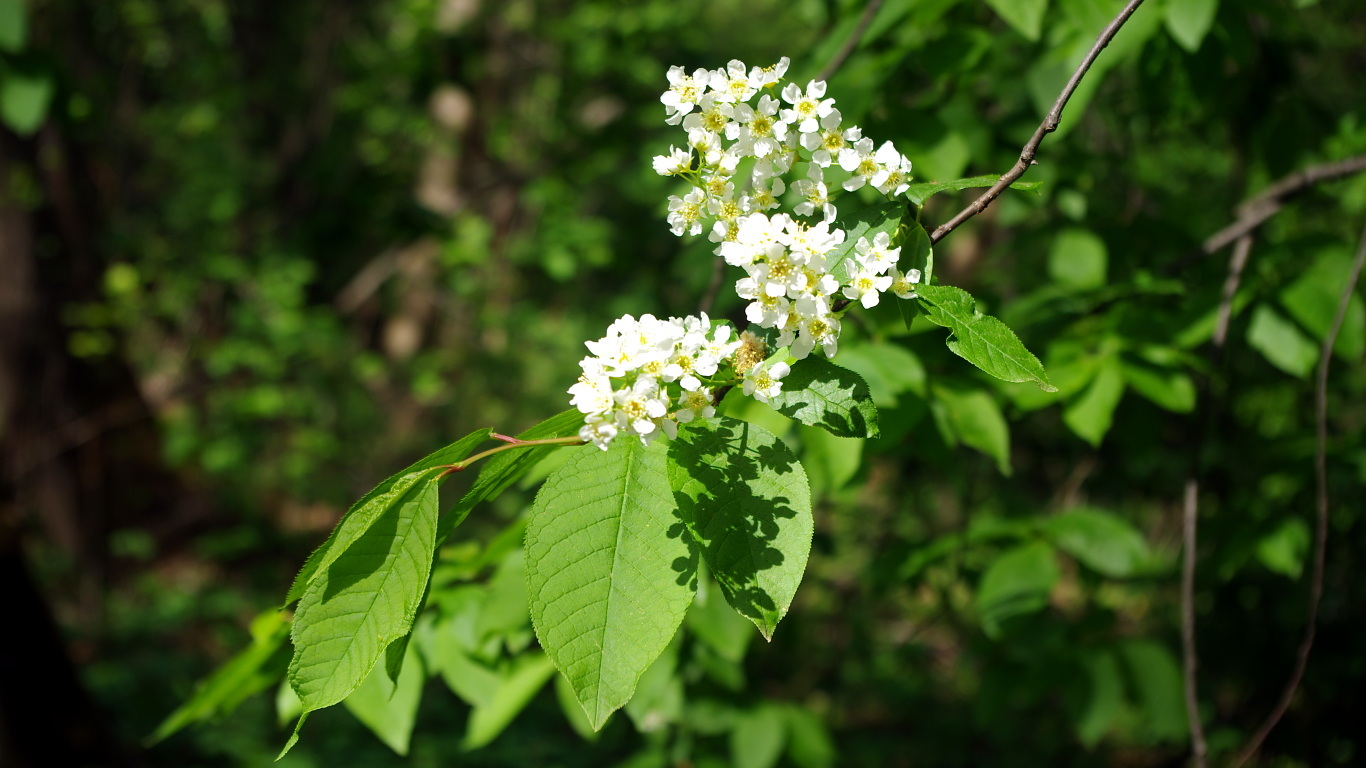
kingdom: Plantae
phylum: Tracheophyta
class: Magnoliopsida
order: Rosales
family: Rosaceae
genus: Prunus
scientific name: Prunus padus
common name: Bird cherry
